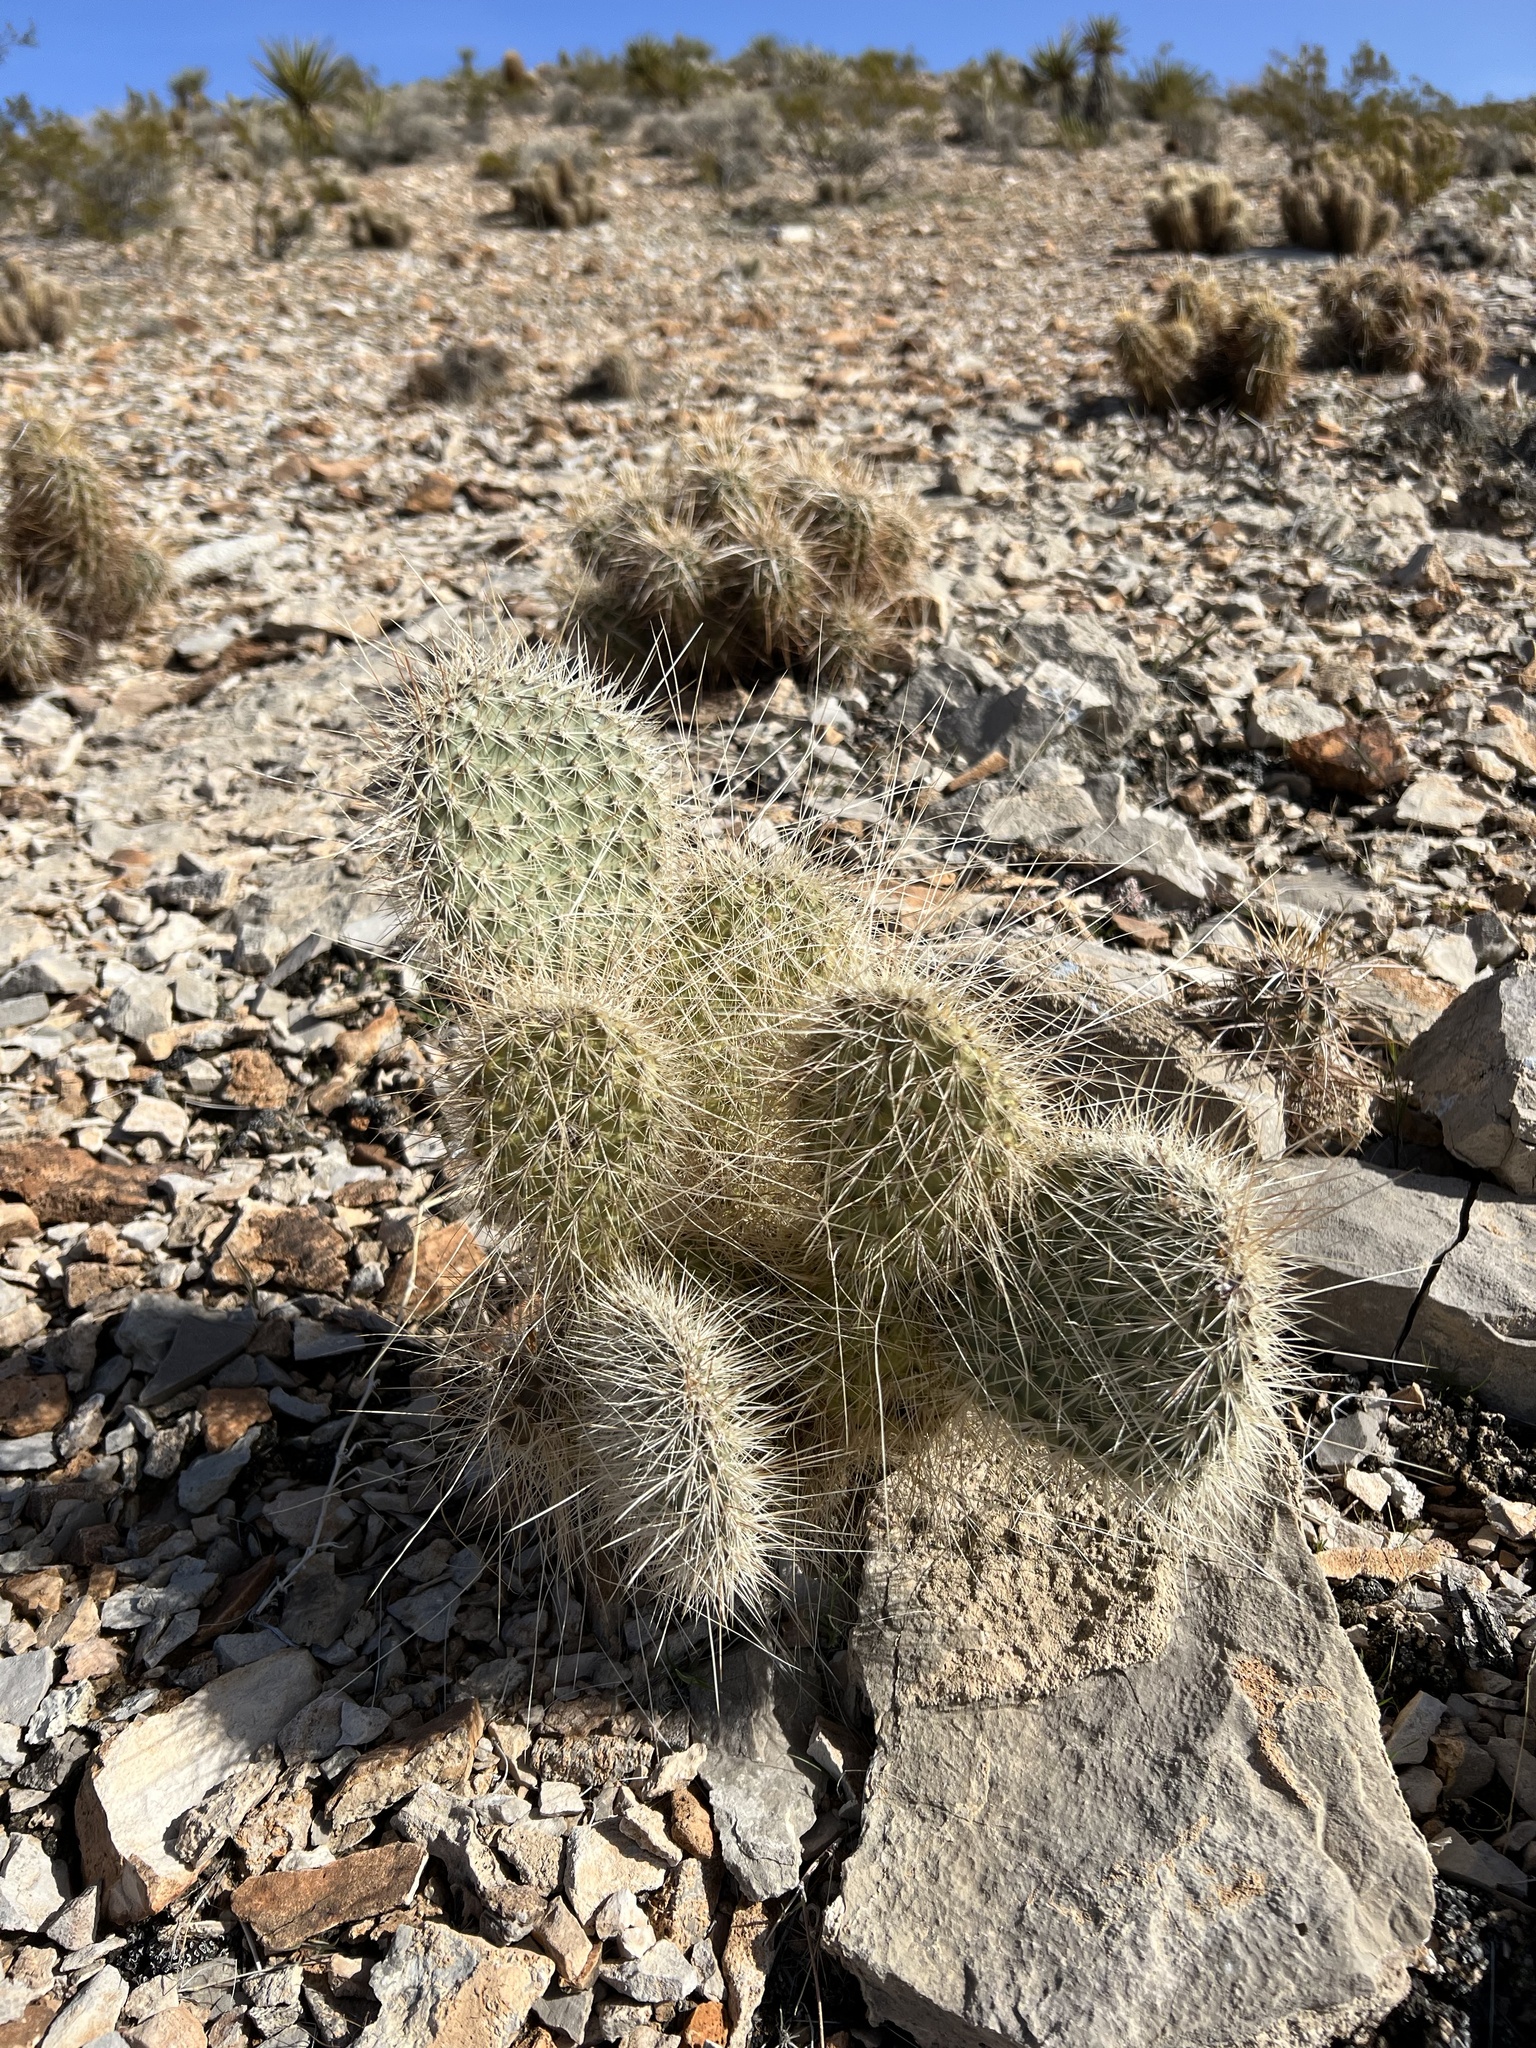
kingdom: Plantae
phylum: Tracheophyta
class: Magnoliopsida
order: Caryophyllales
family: Cactaceae
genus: Opuntia
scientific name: Opuntia polyacantha
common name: Plains prickly-pear
